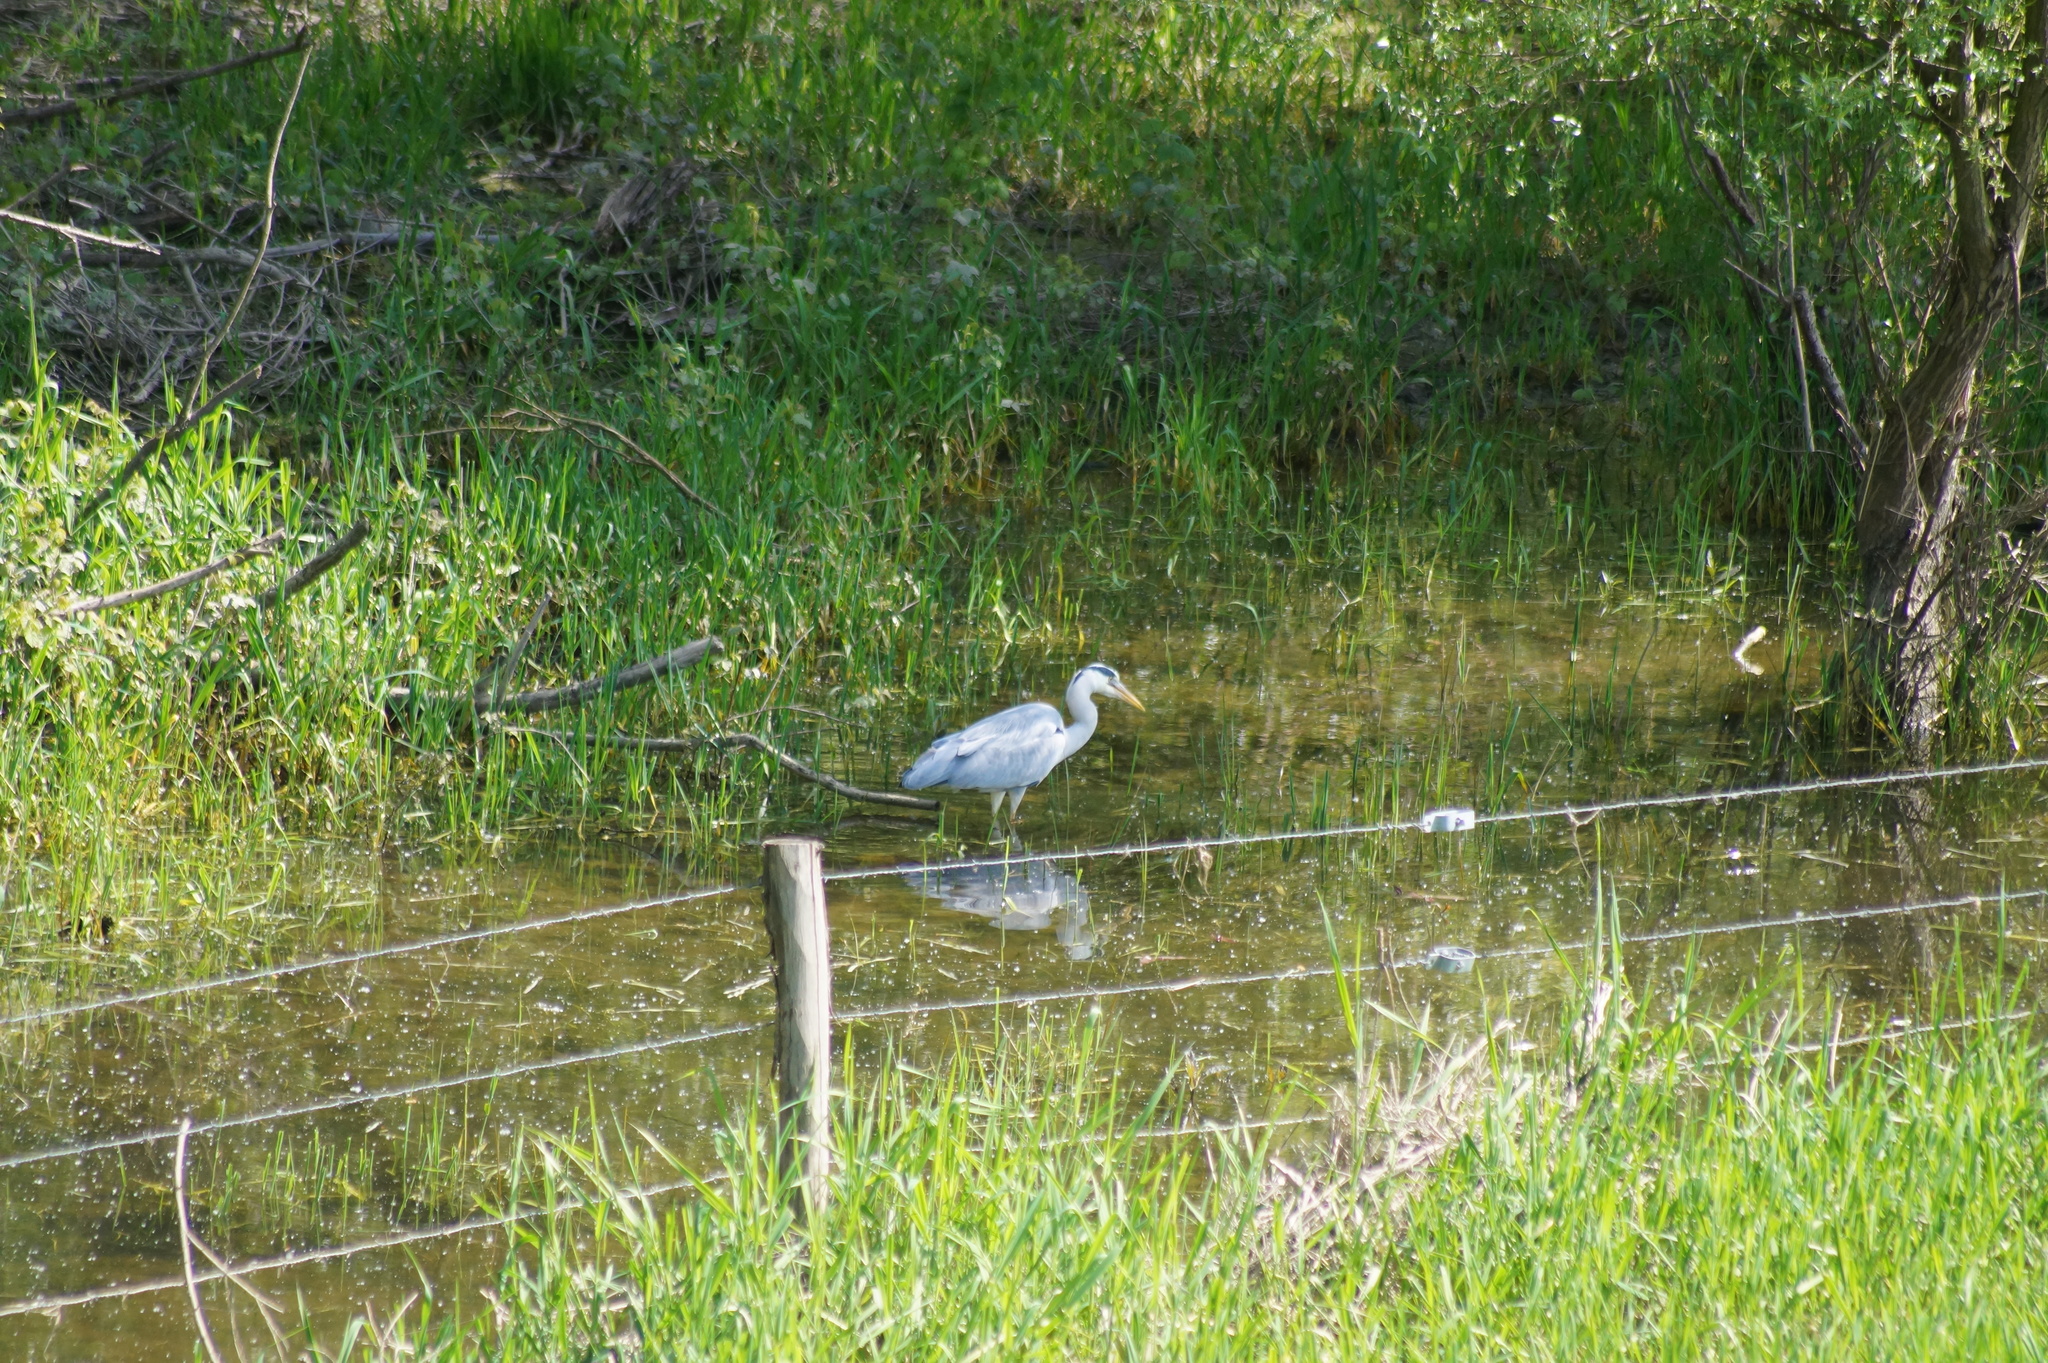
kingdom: Animalia
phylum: Chordata
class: Aves
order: Pelecaniformes
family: Ardeidae
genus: Ardea
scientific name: Ardea cinerea
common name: Grey heron
